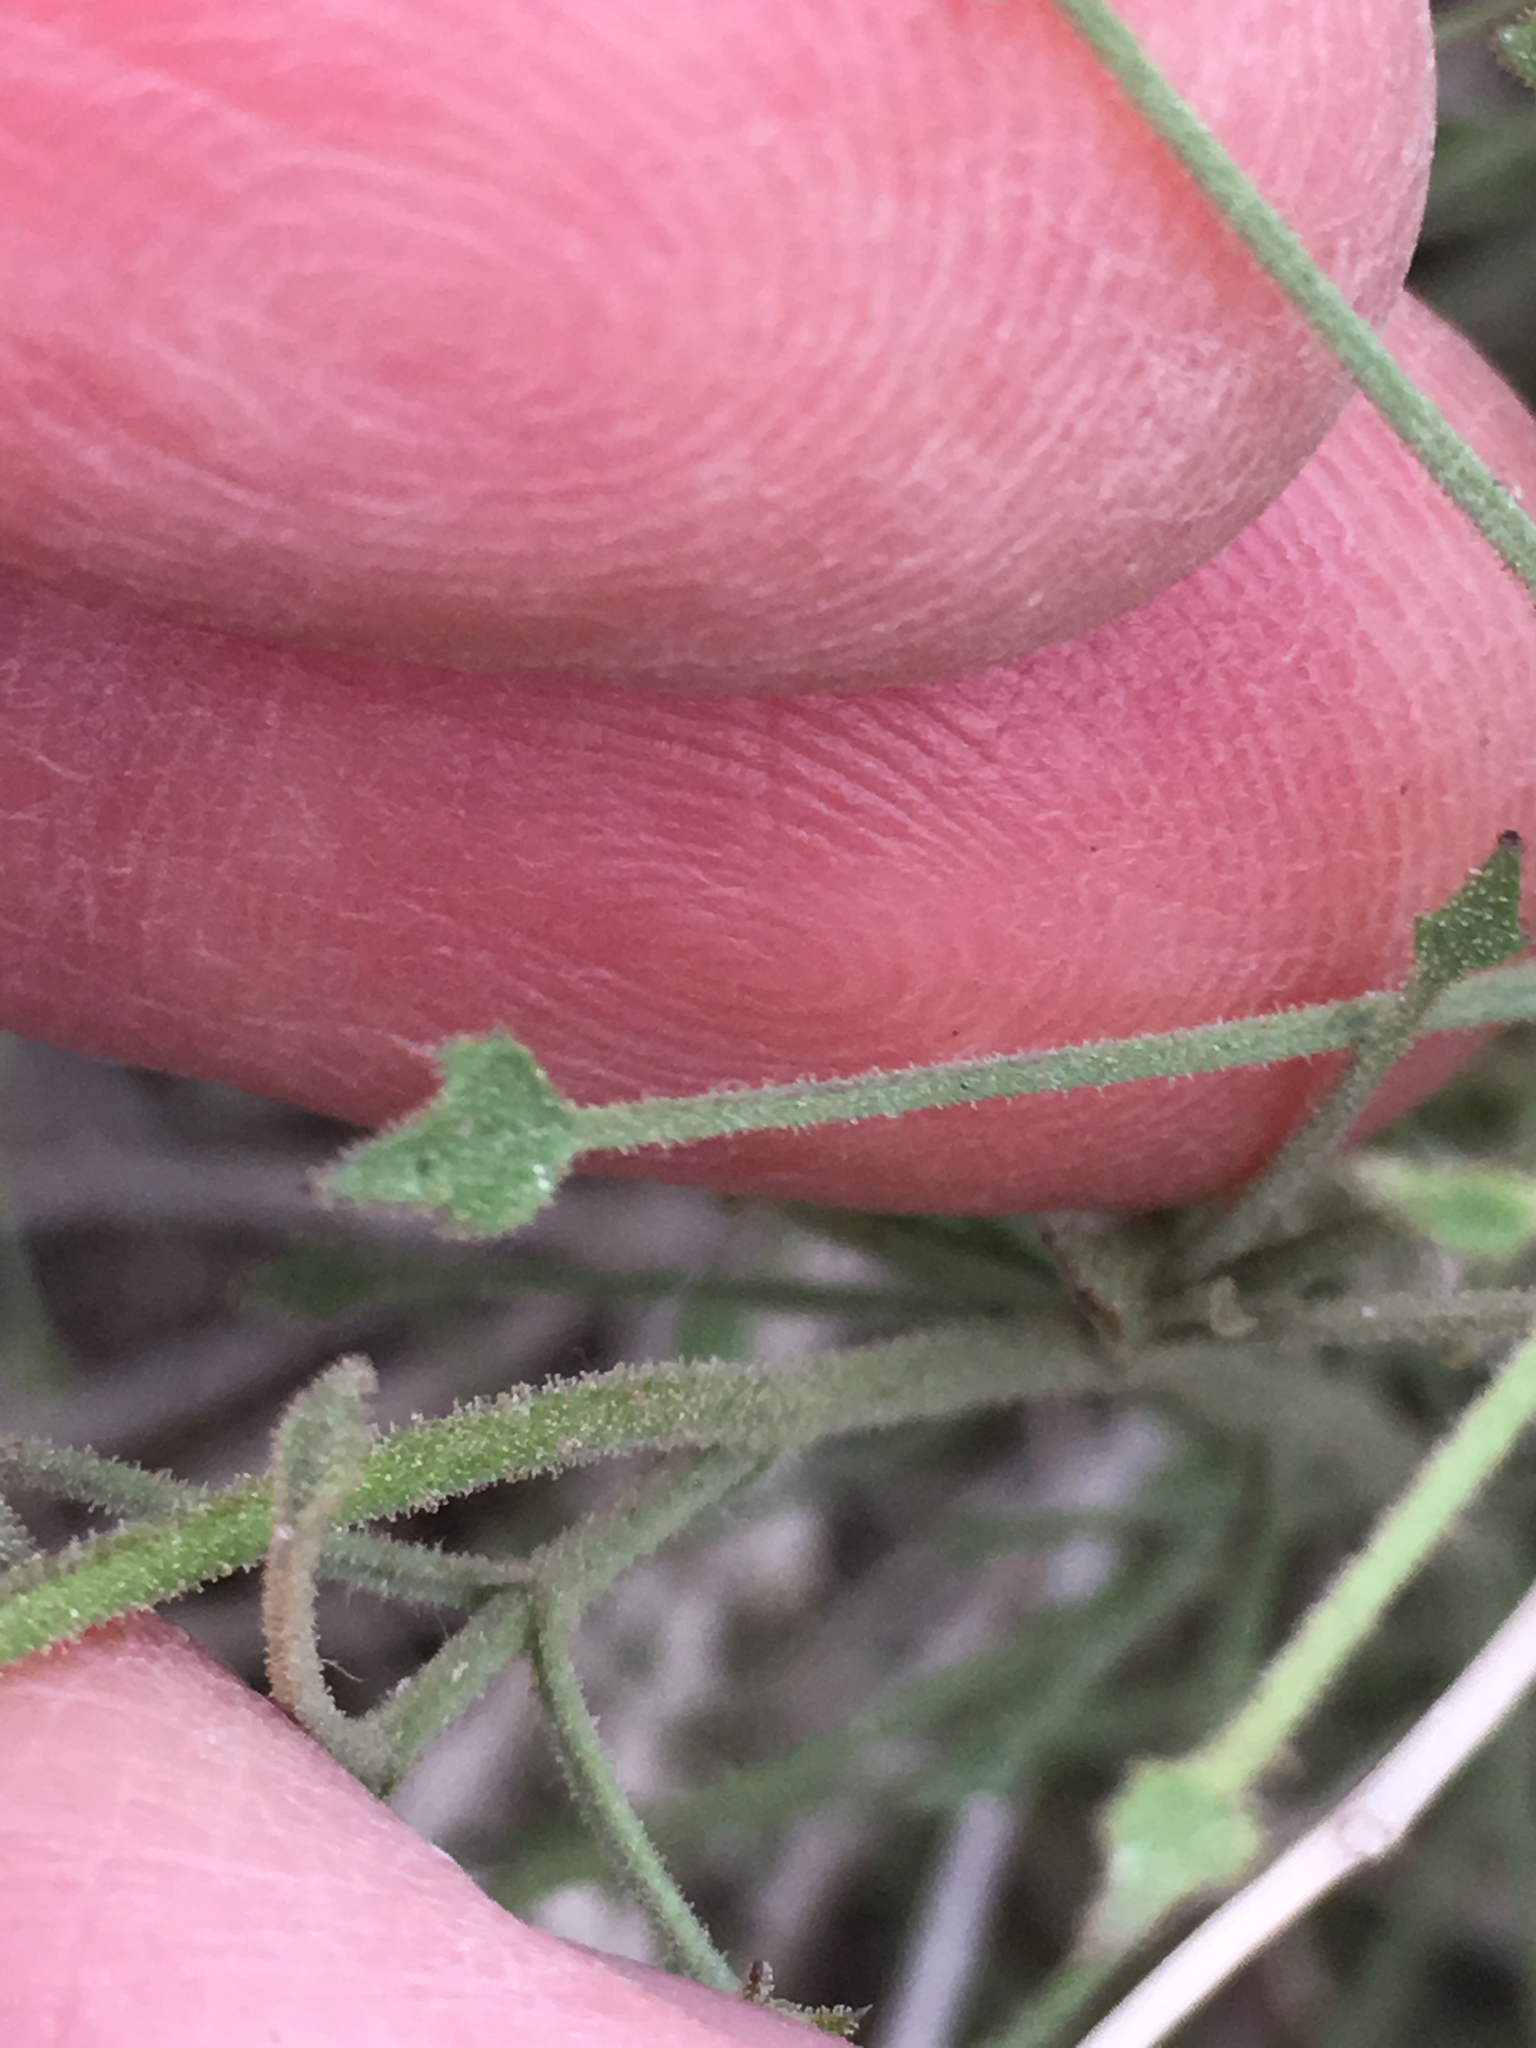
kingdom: Plantae
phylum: Tracheophyta
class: Magnoliopsida
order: Asterales
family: Asteraceae
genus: Pleurocoronis
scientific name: Pleurocoronis pluriseta
